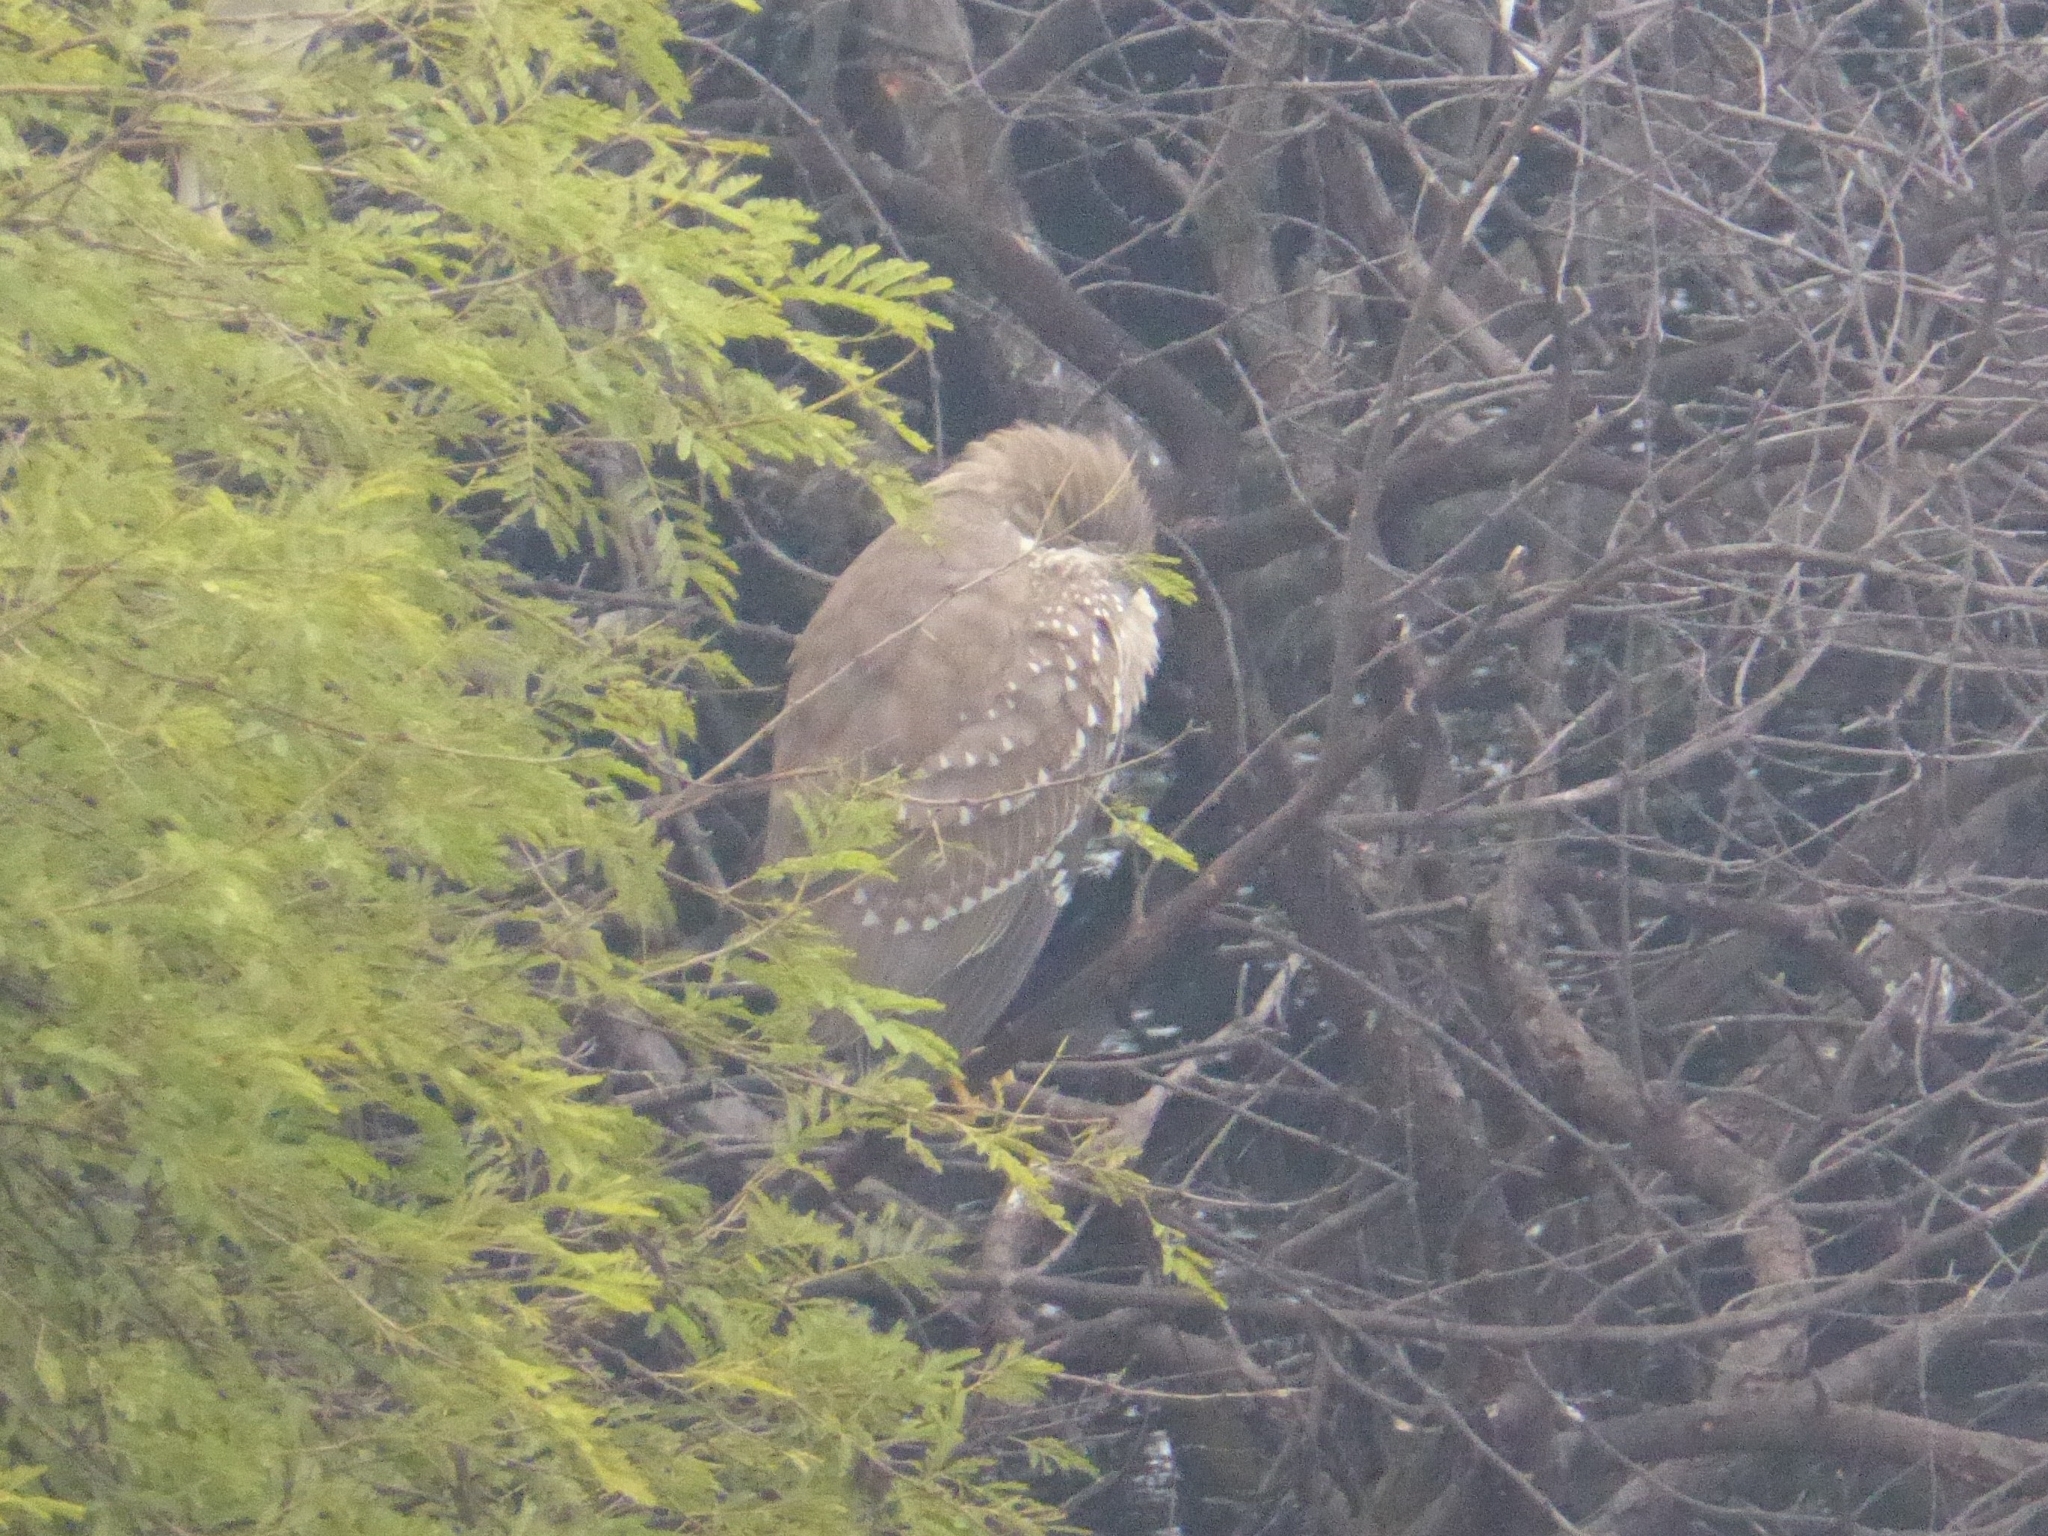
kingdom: Animalia
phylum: Chordata
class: Aves
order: Pelecaniformes
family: Ardeidae
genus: Nycticorax
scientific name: Nycticorax nycticorax
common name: Black-crowned night heron
